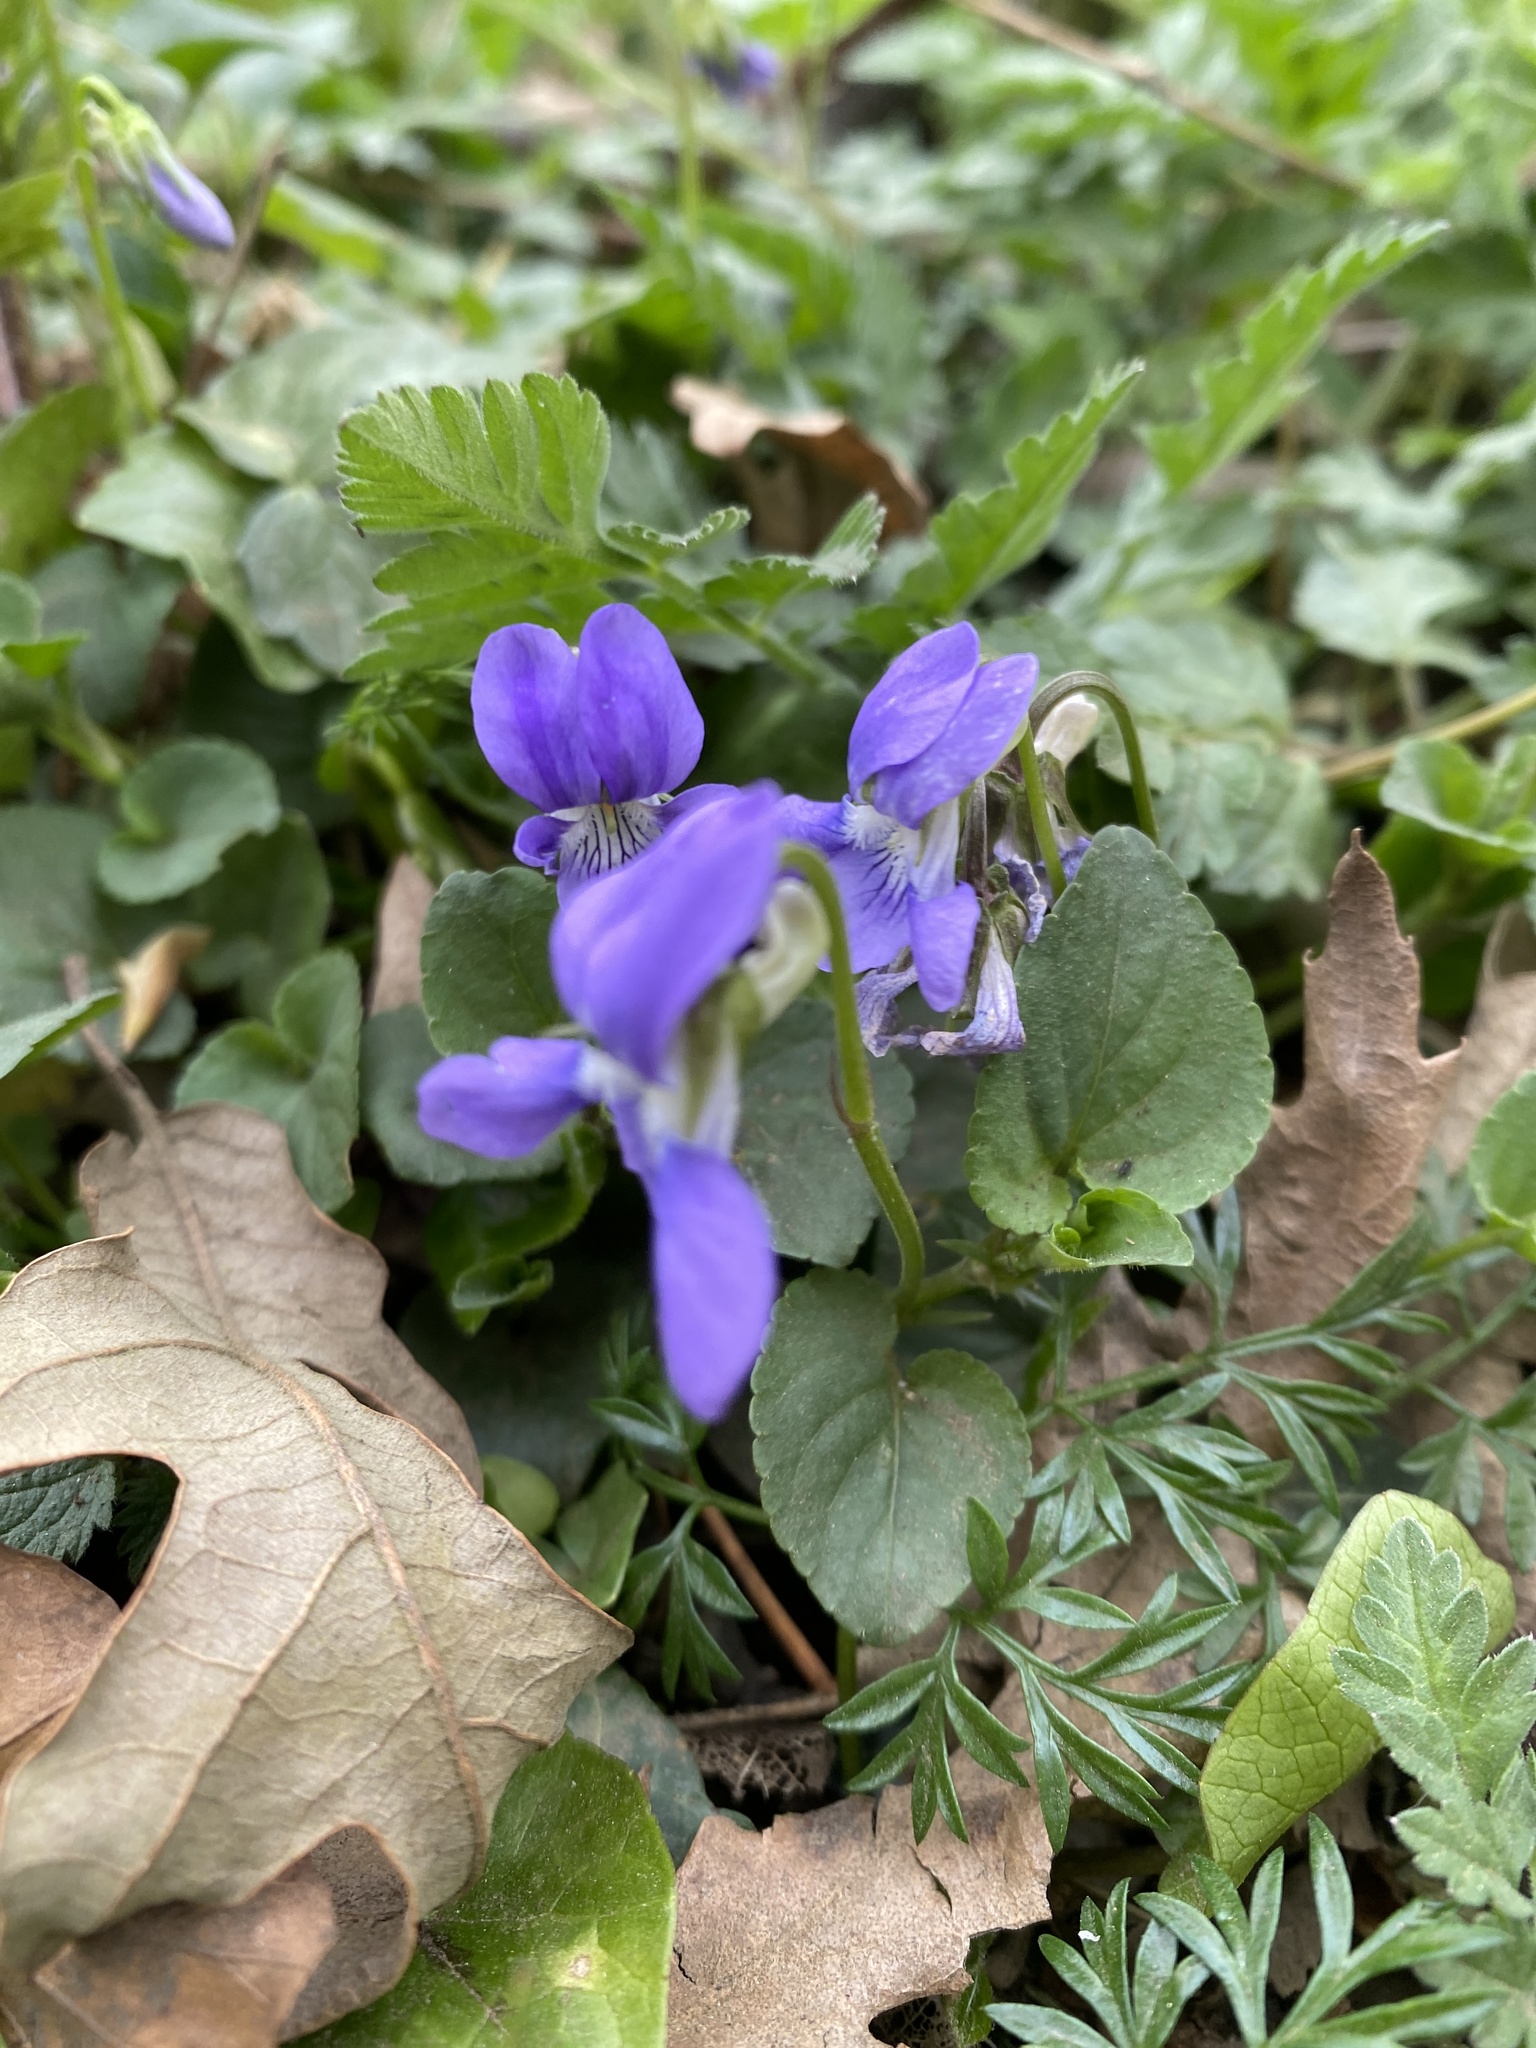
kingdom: Plantae
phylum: Tracheophyta
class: Magnoliopsida
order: Malpighiales
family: Violaceae
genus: Viola
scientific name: Viola riviniana
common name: Common dog-violet
